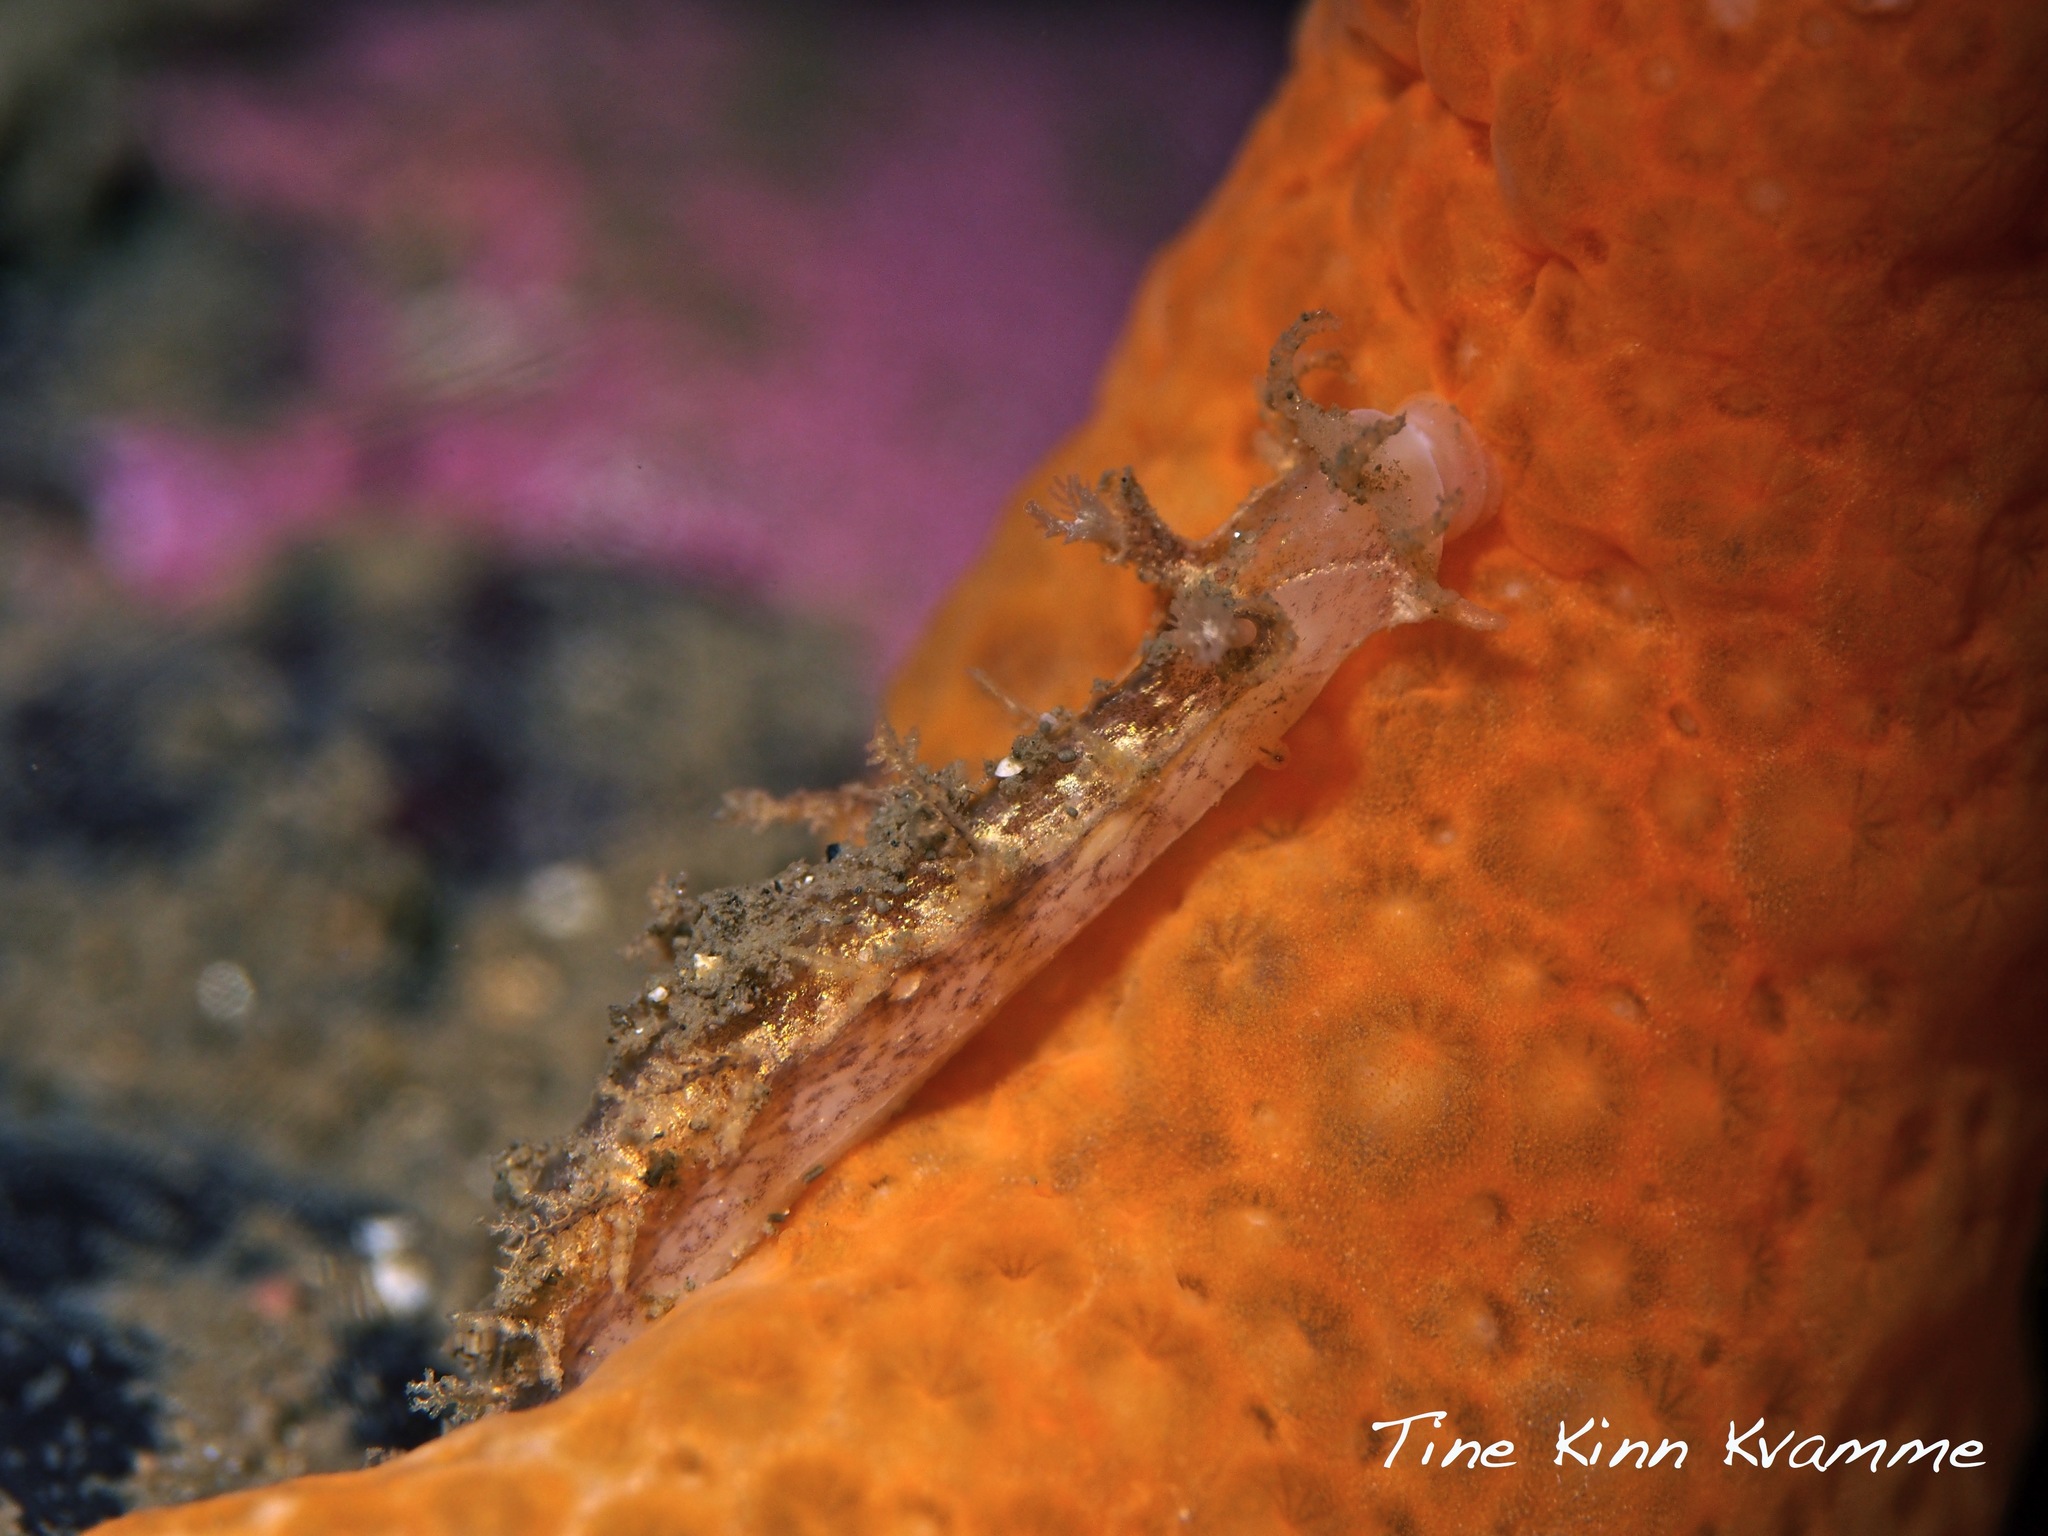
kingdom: Animalia
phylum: Mollusca
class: Gastropoda
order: Nudibranchia
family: Tritoniidae
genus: Duvaucelia
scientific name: Duvaucelia plebeia
